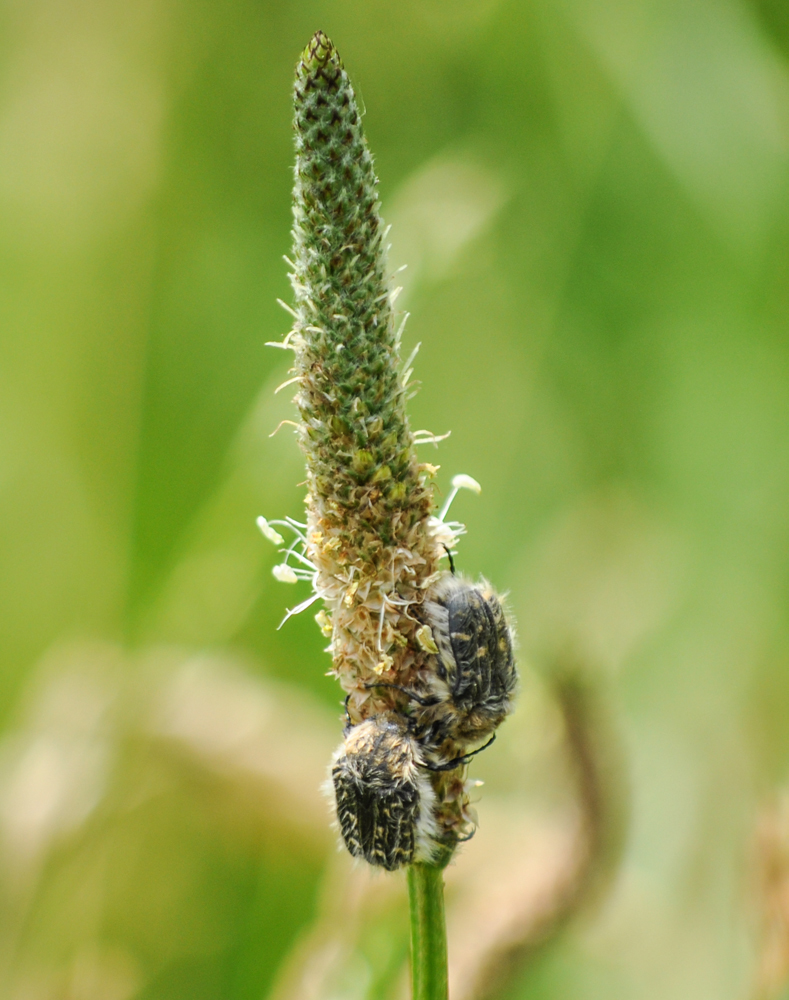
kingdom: Plantae
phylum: Tracheophyta
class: Magnoliopsida
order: Lamiales
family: Plantaginaceae
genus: Plantago
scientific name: Plantago lanceolata
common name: Ribwort plantain
